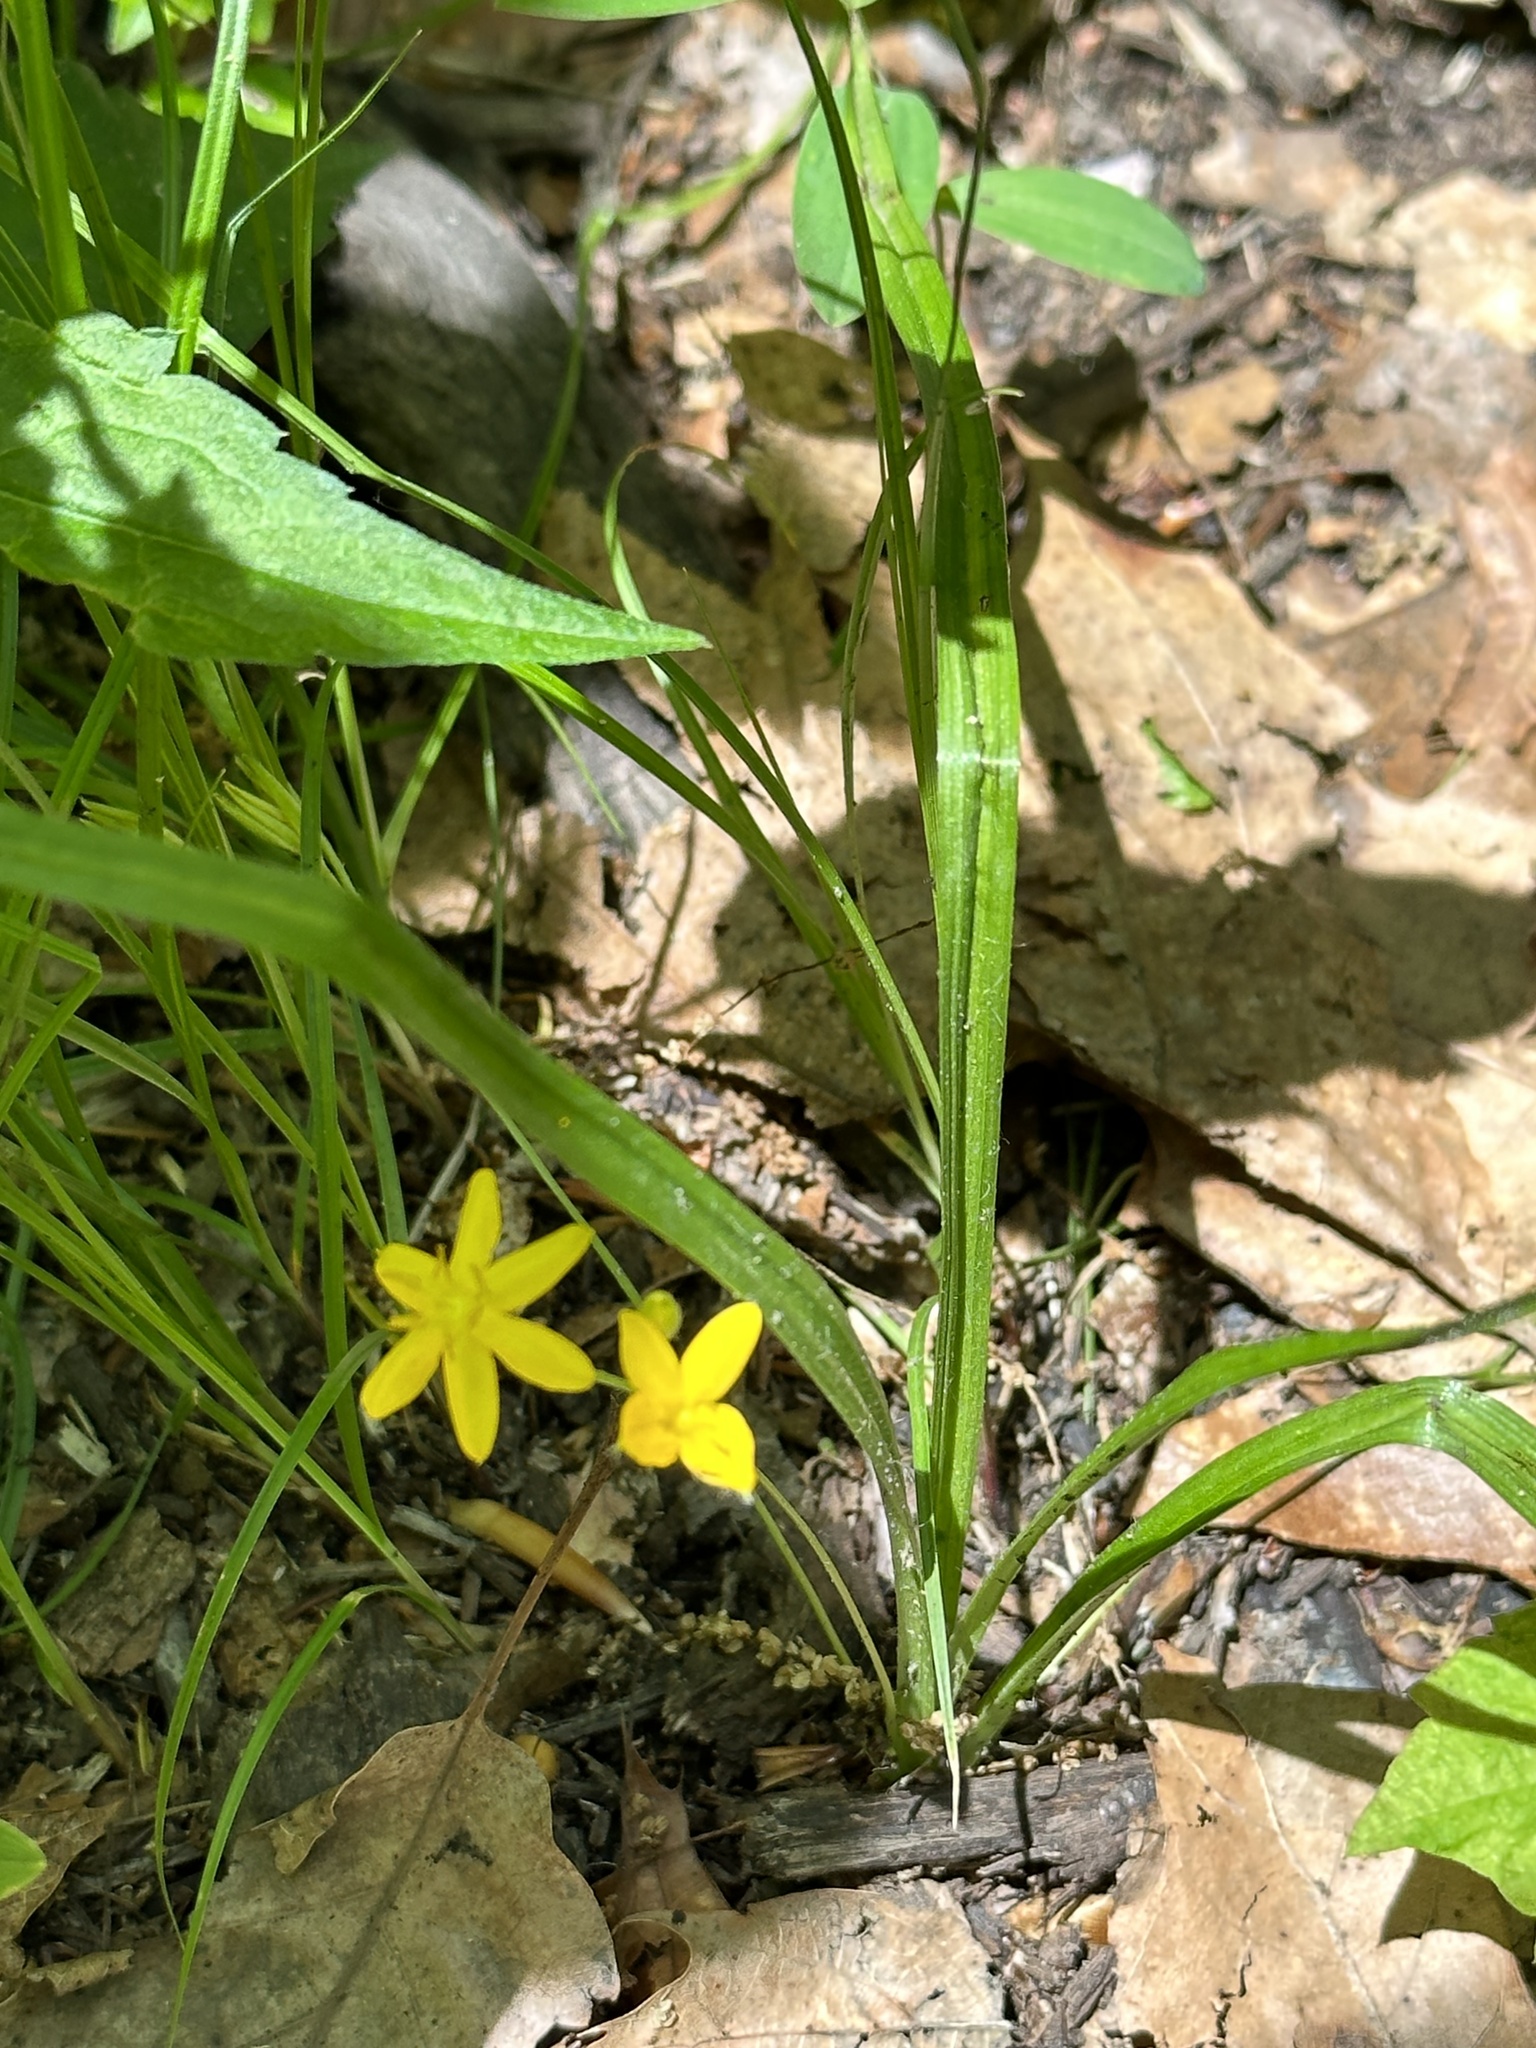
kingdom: Plantae
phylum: Tracheophyta
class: Liliopsida
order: Asparagales
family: Hypoxidaceae
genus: Hypoxis
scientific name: Hypoxis hirsuta
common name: Common goldstar
